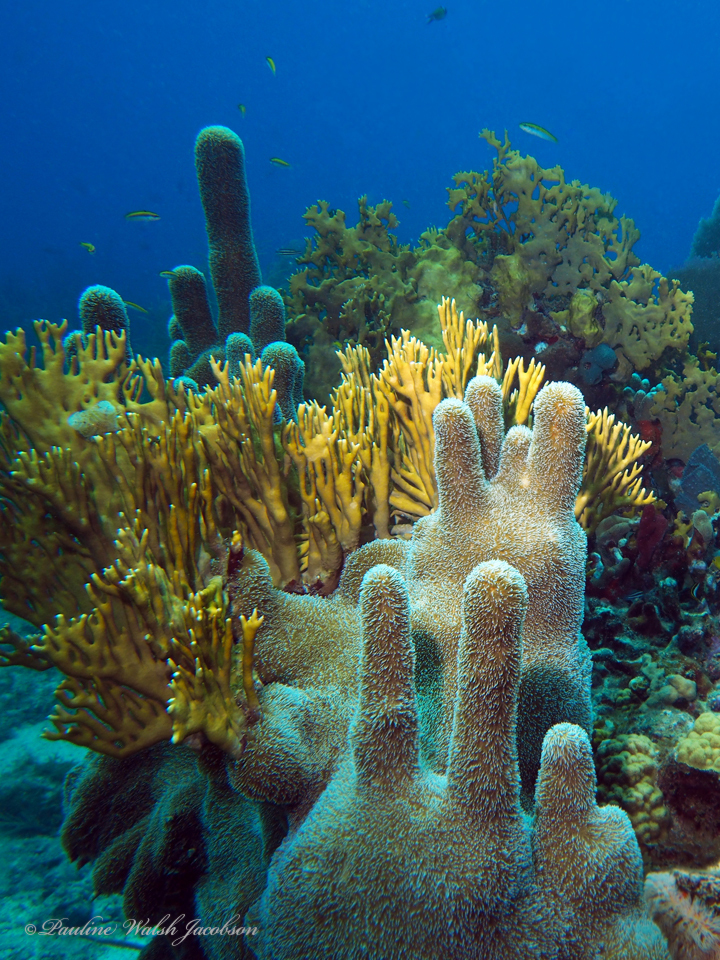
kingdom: Animalia
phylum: Cnidaria
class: Anthozoa
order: Scleractinia
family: Meandrinidae
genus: Dendrogyra
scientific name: Dendrogyra cylindrus
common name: Pillar coral
